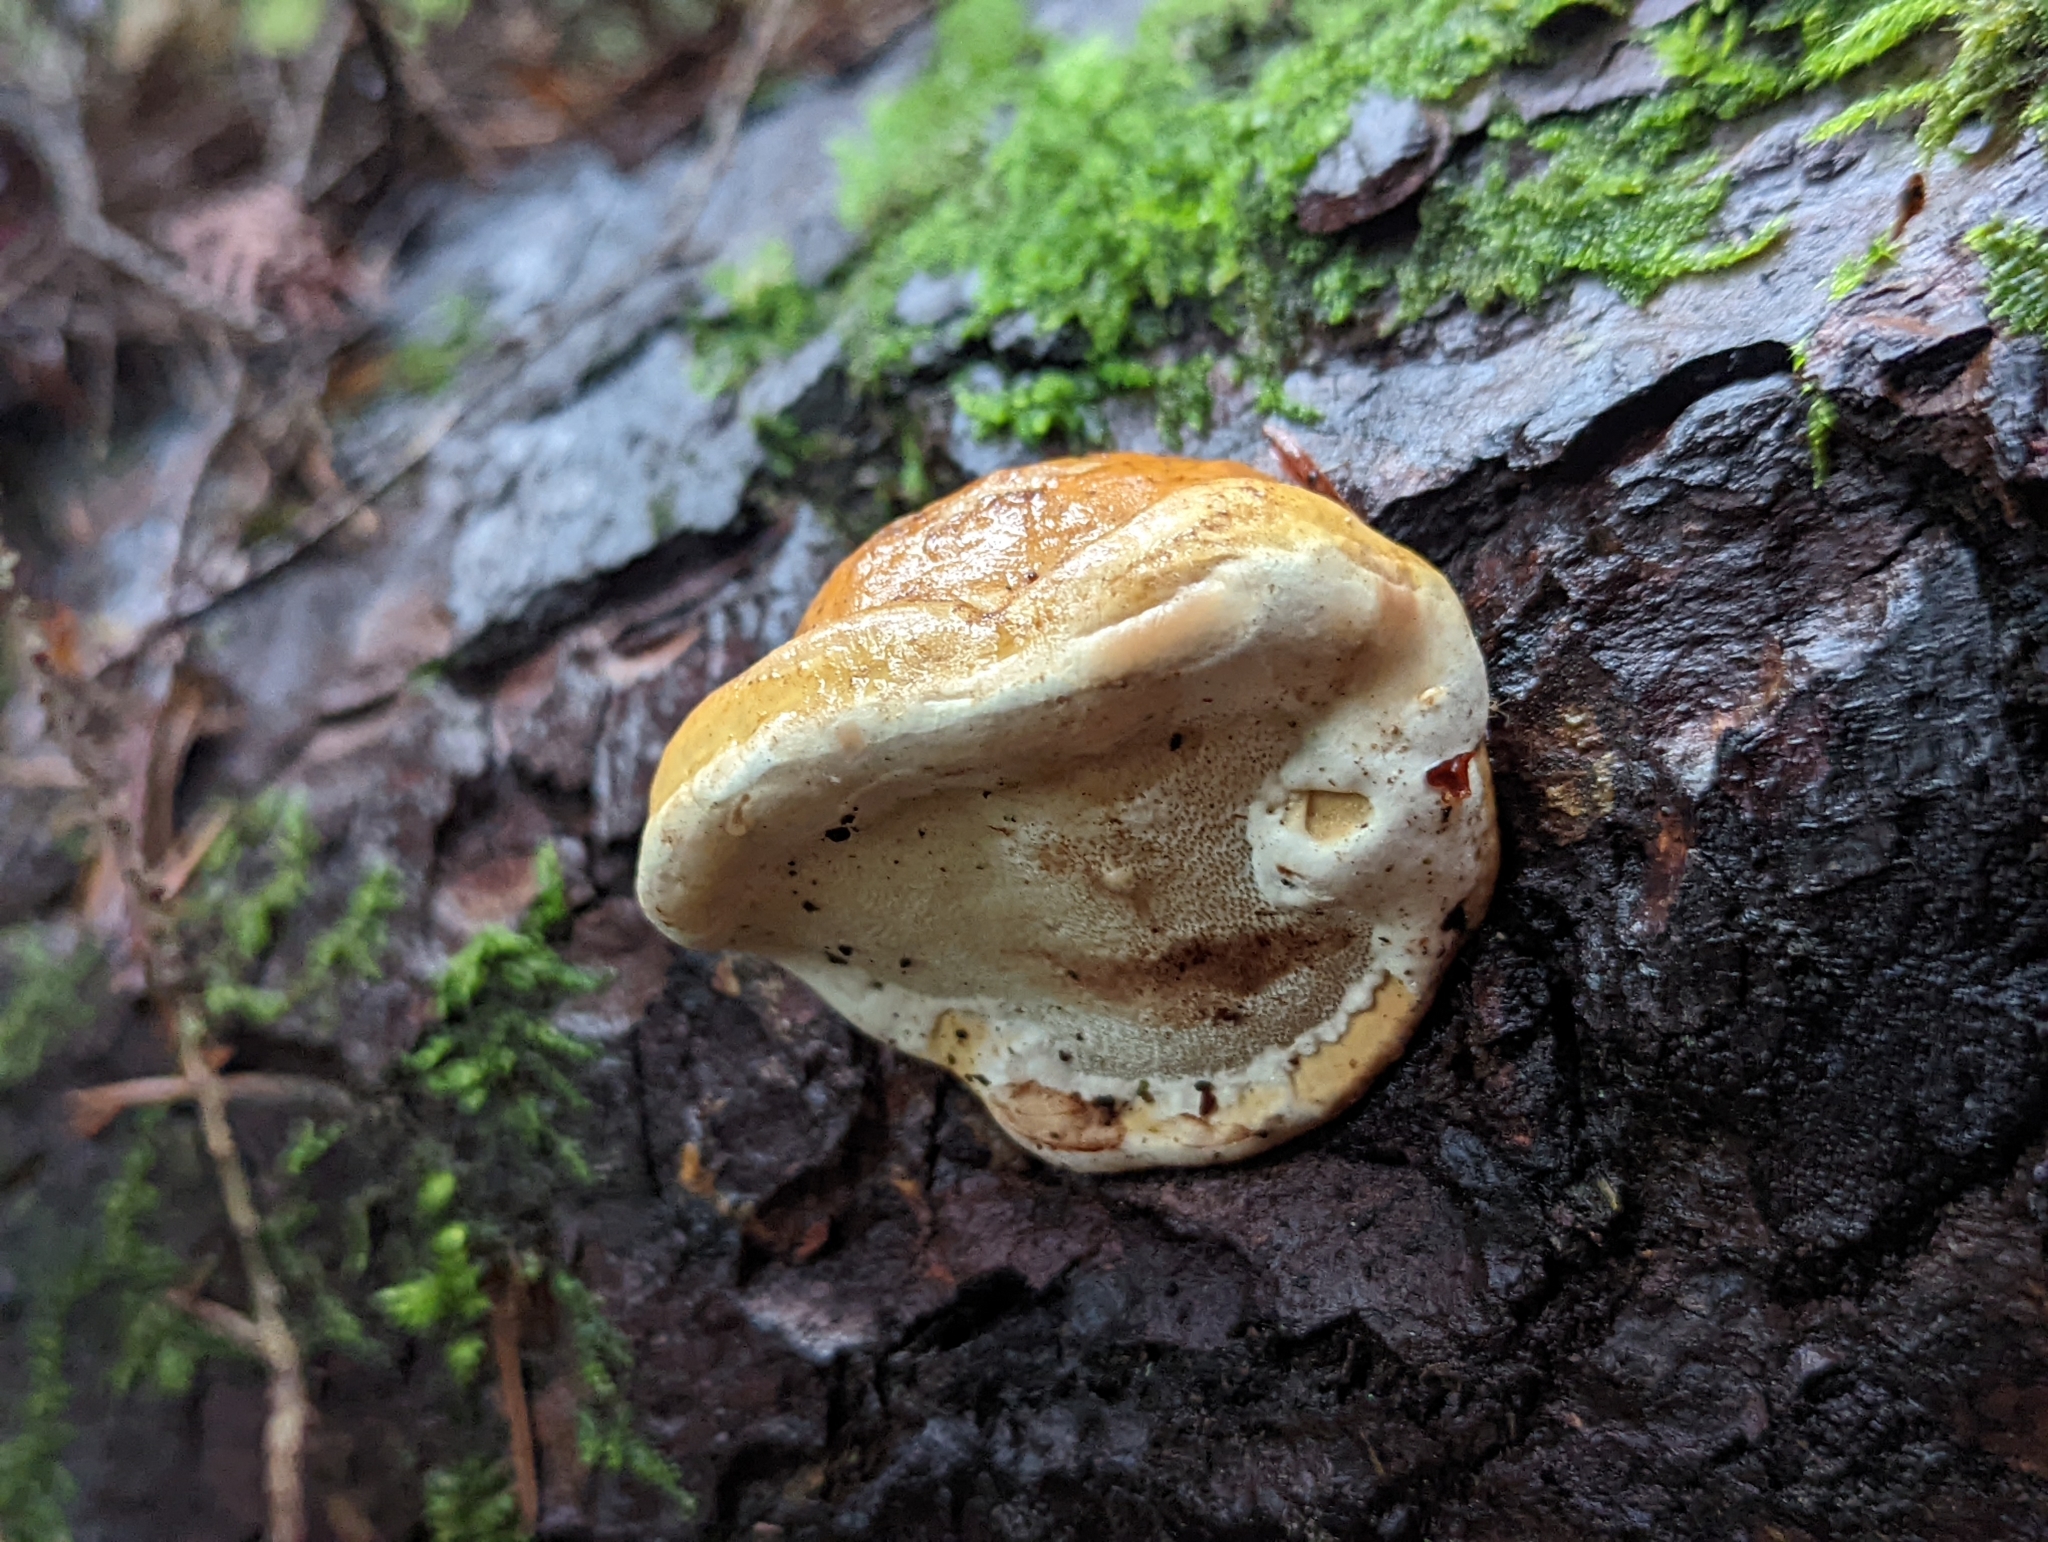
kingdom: Fungi
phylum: Basidiomycota
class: Agaricomycetes
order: Polyporales
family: Fomitopsidaceae
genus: Fomitopsis
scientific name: Fomitopsis mounceae
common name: Northern red belt
